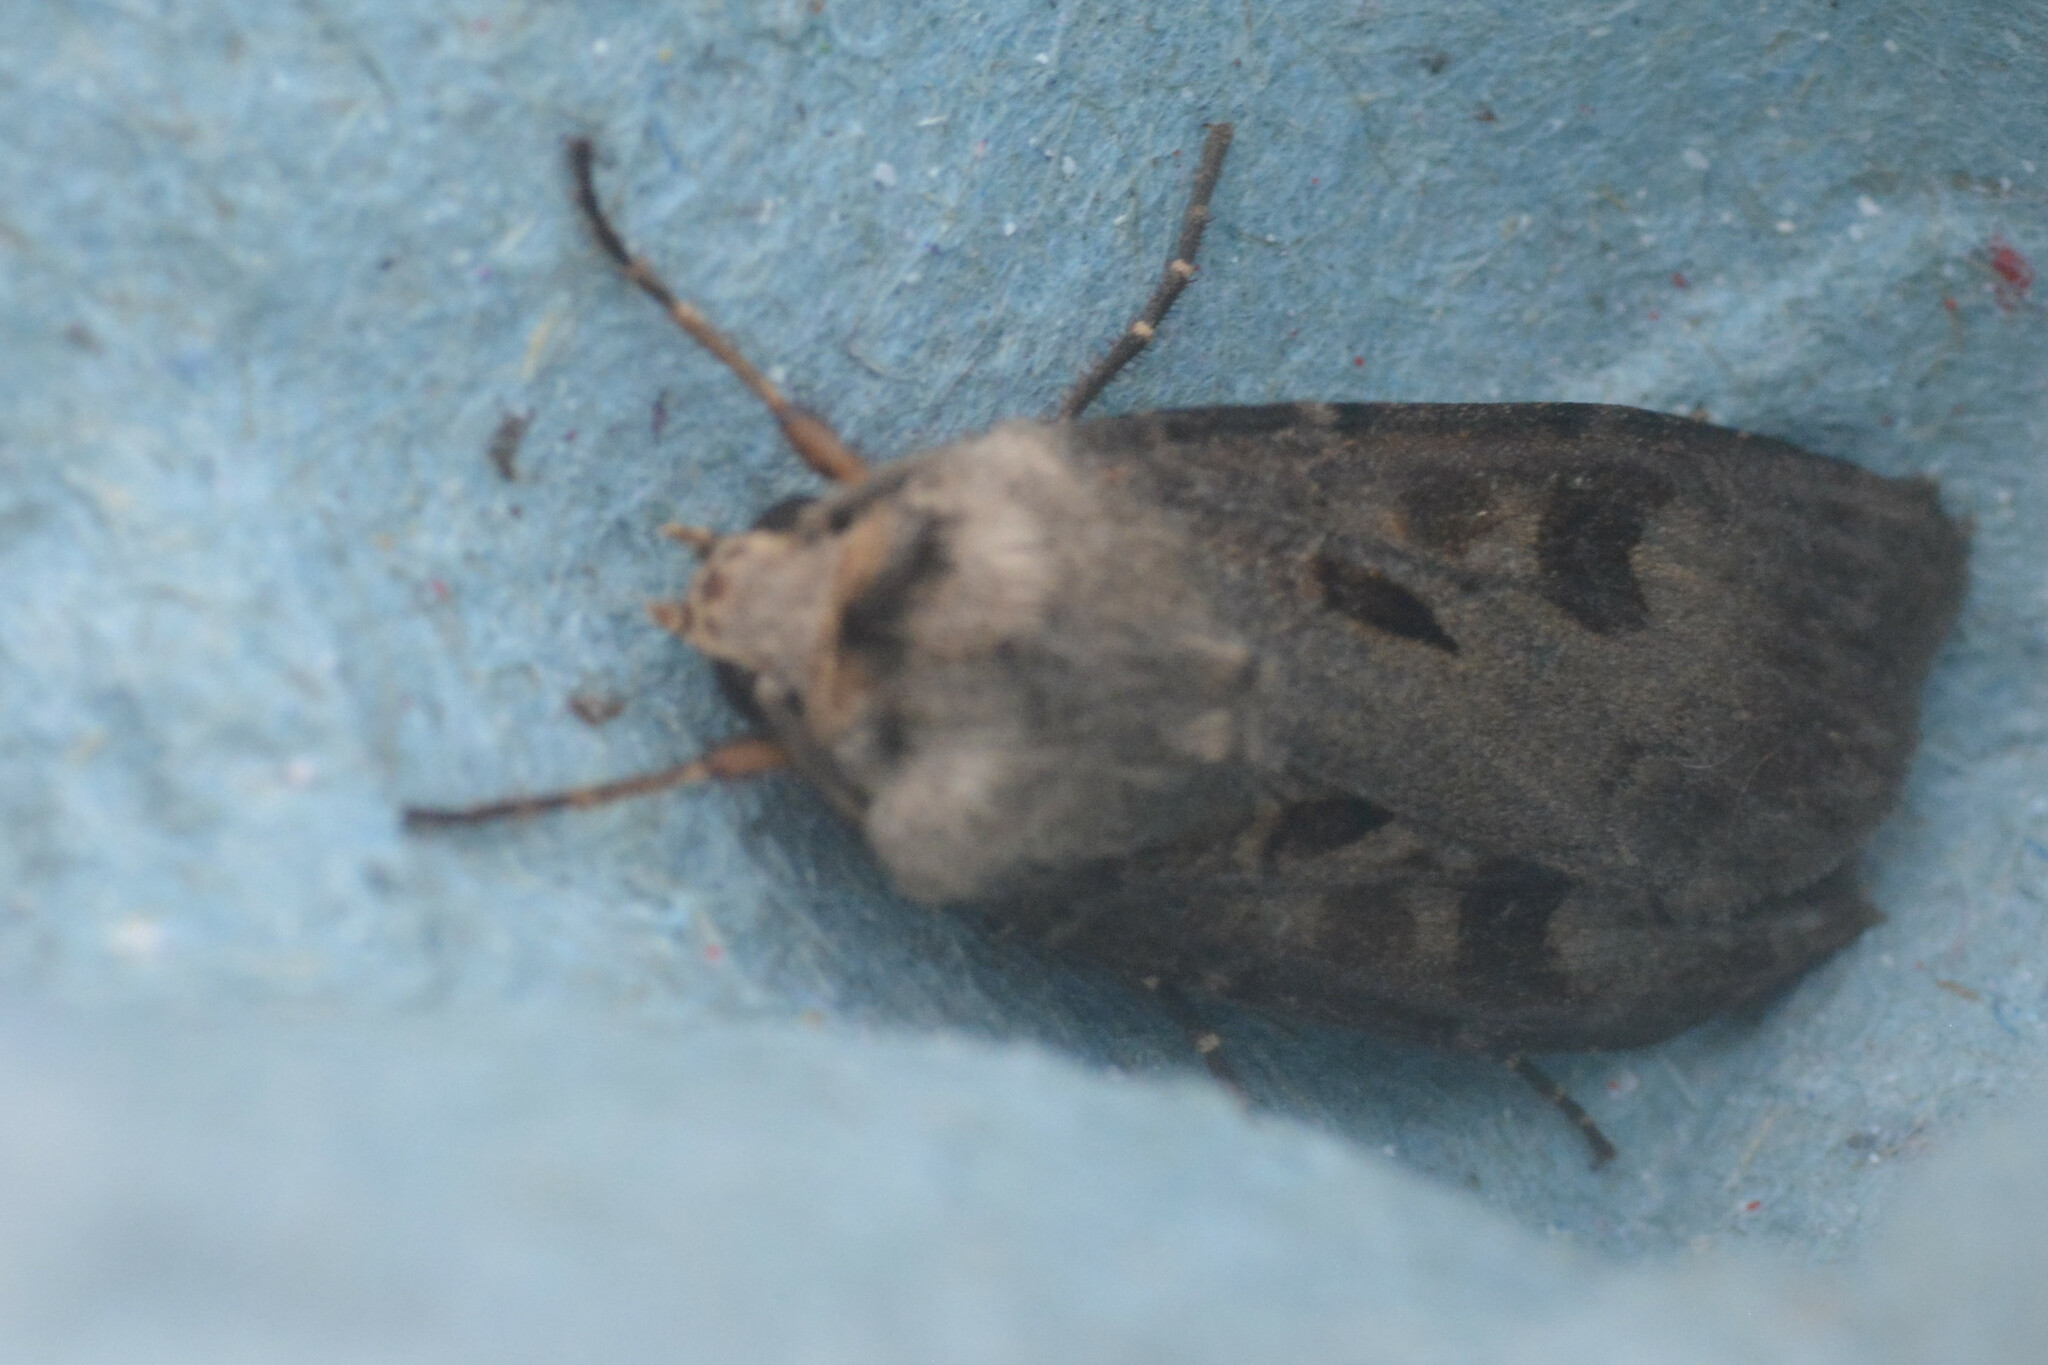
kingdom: Animalia
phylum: Arthropoda
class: Insecta
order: Lepidoptera
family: Noctuidae
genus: Agrotis
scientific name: Agrotis exclamationis
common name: Heart and dart
